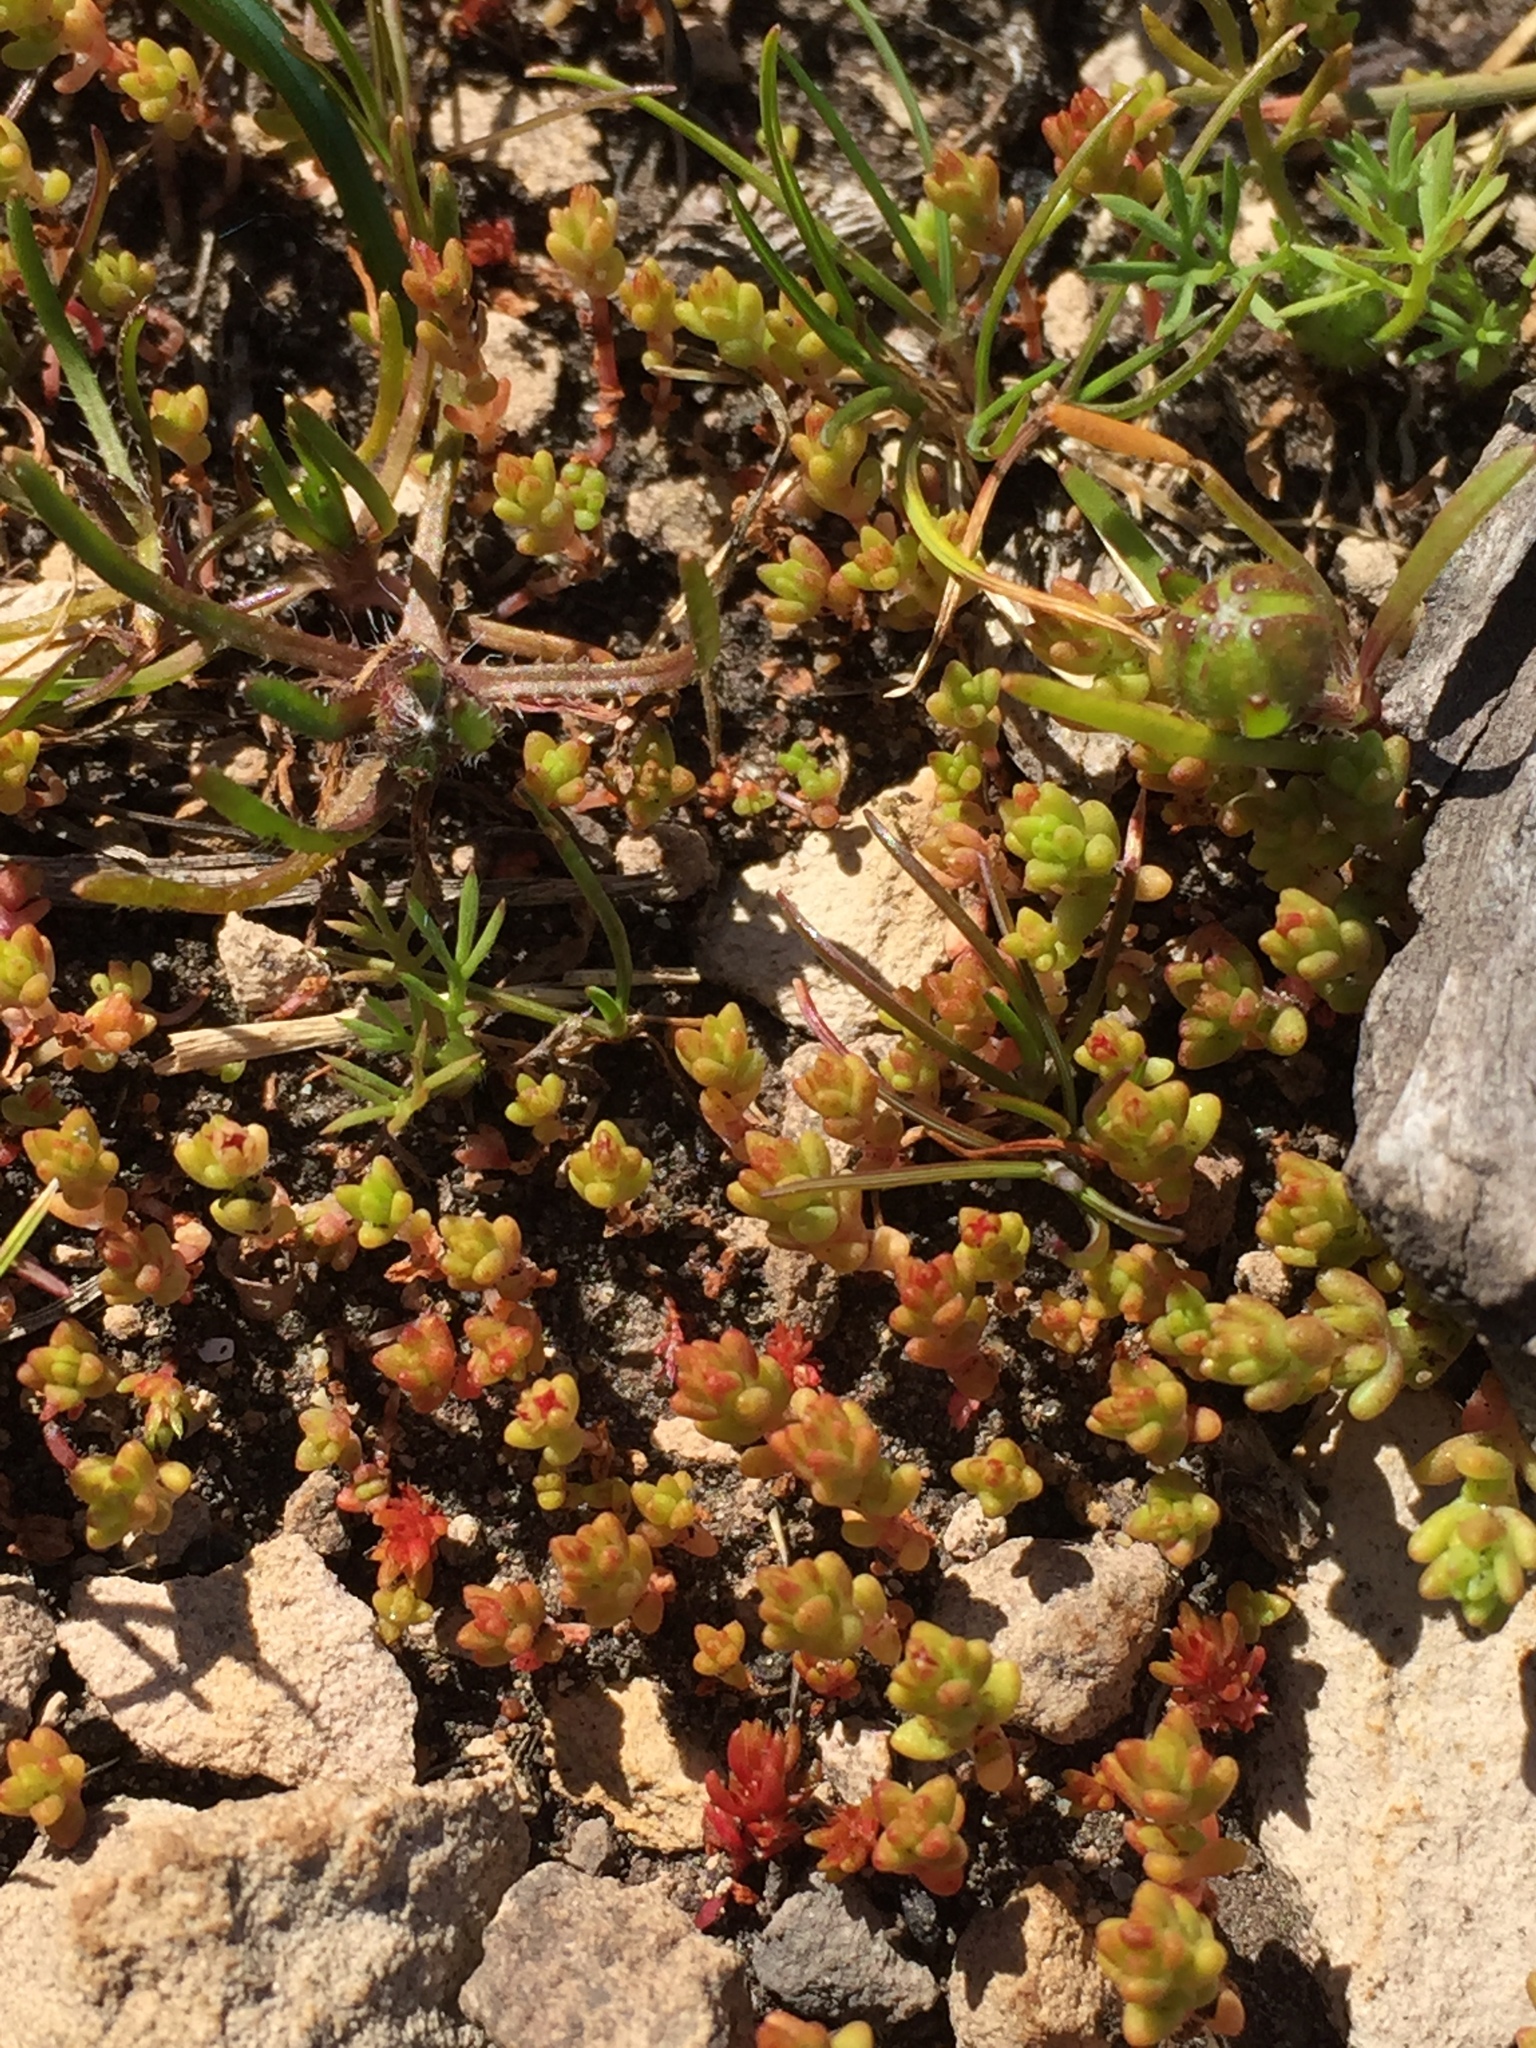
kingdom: Plantae
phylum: Tracheophyta
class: Magnoliopsida
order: Saxifragales
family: Crassulaceae
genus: Crassula
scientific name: Crassula connata
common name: Erect pygmyweed
